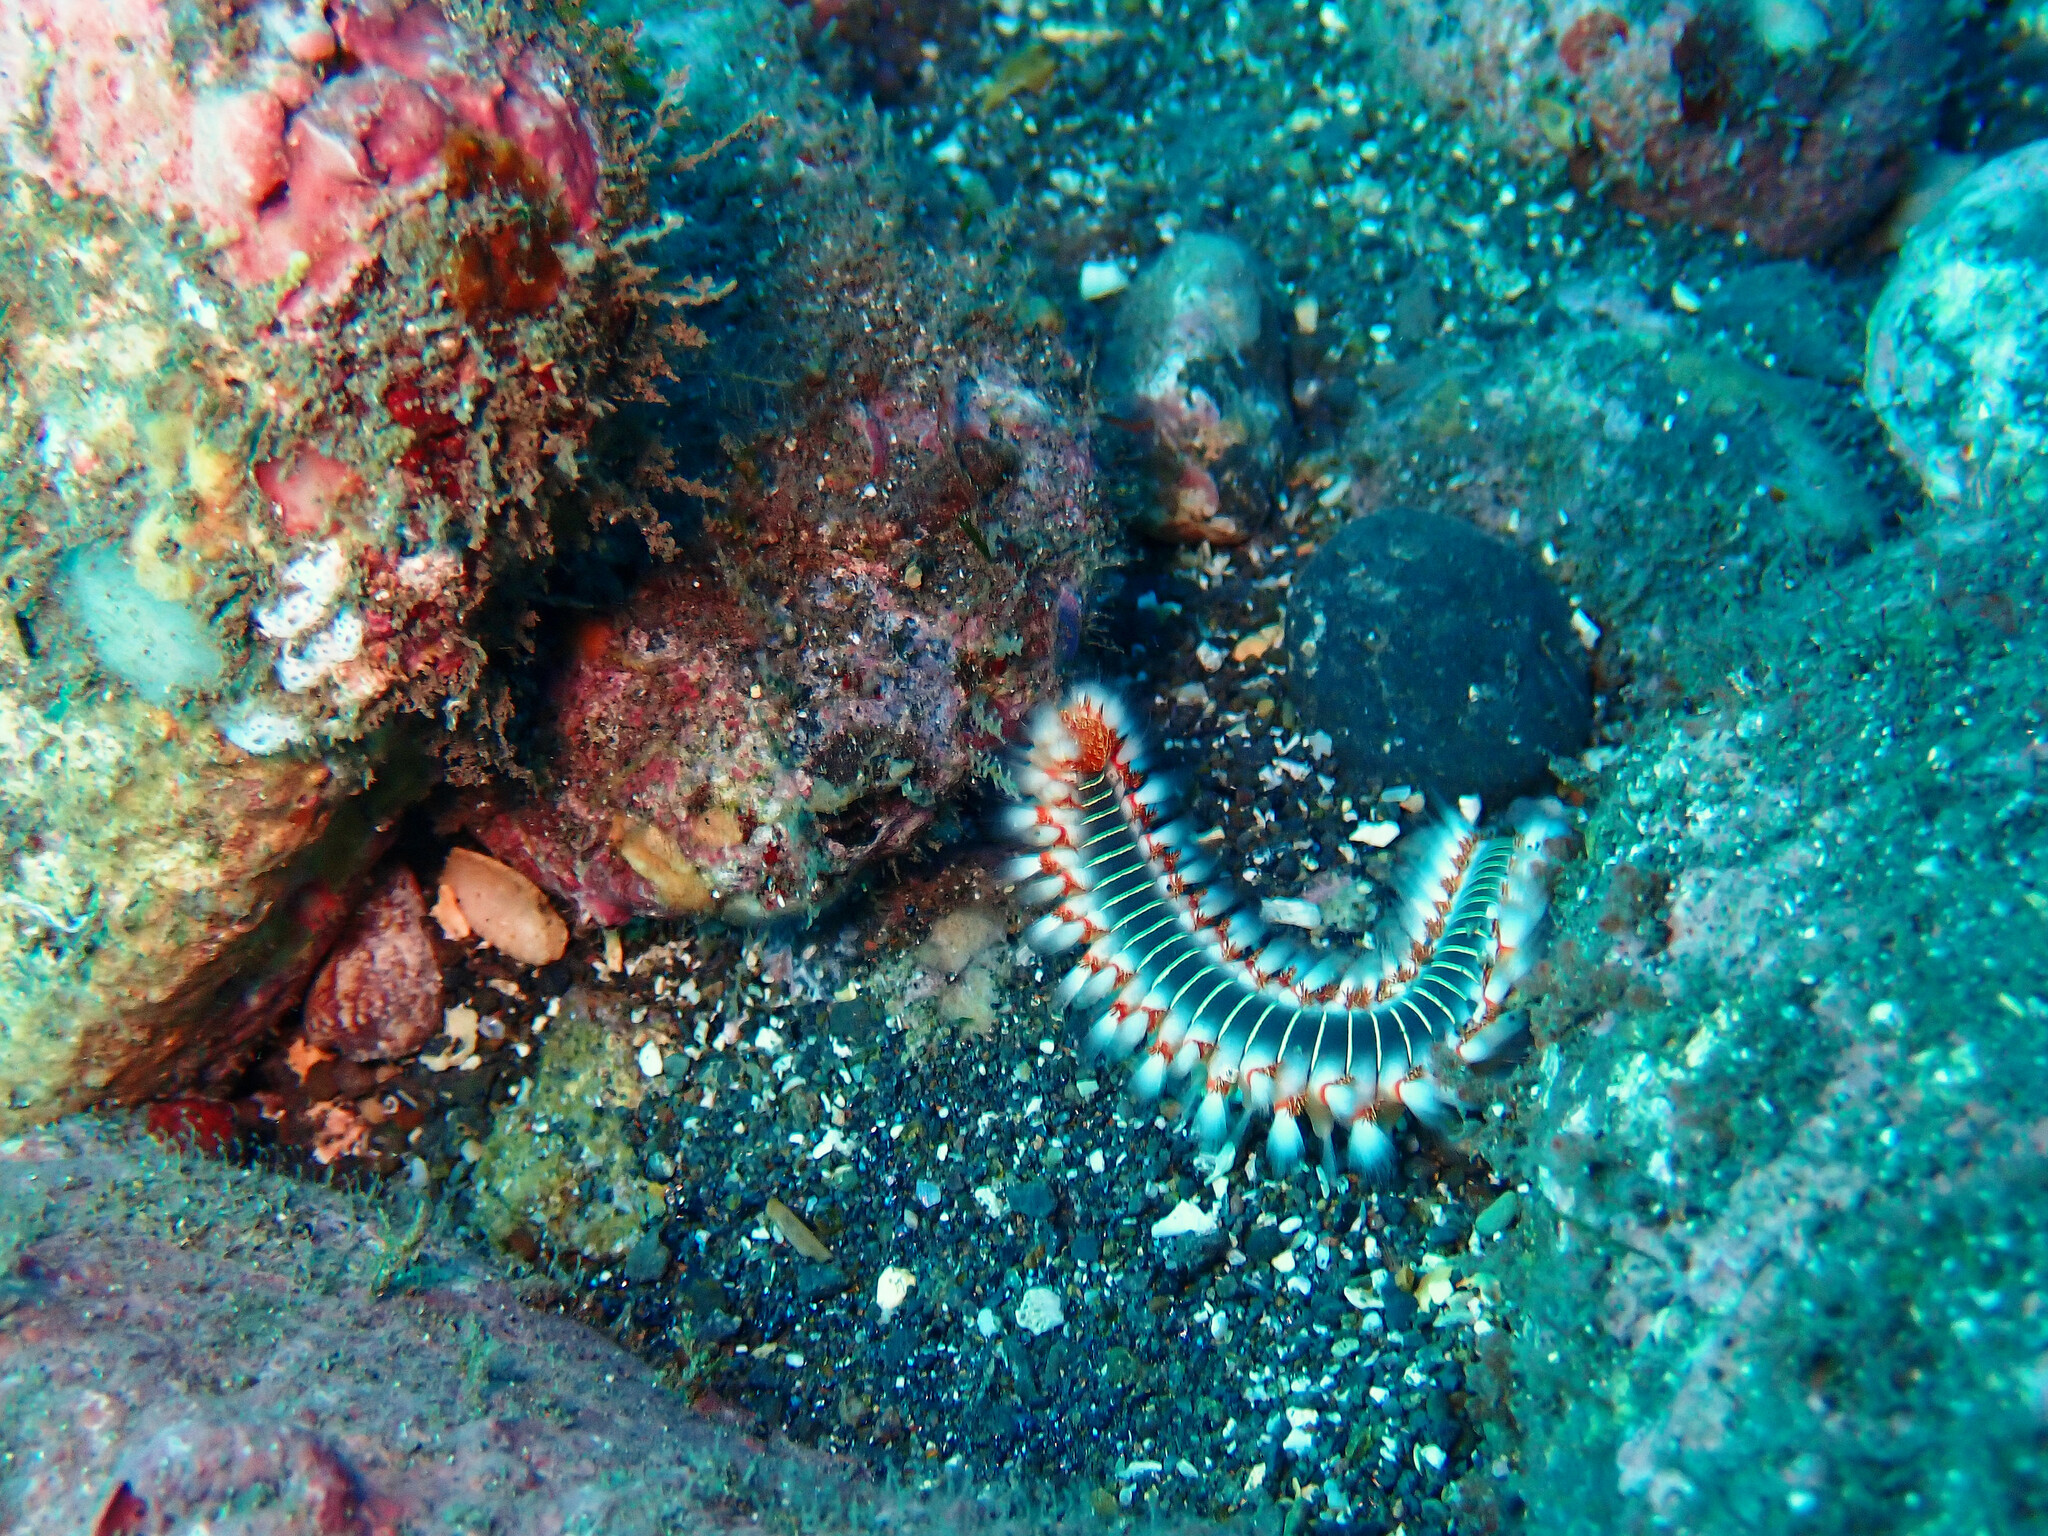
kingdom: Animalia
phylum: Annelida
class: Polychaeta
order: Amphinomida
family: Amphinomidae
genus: Hermodice
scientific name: Hermodice carunculata
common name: Bearded fireworm
